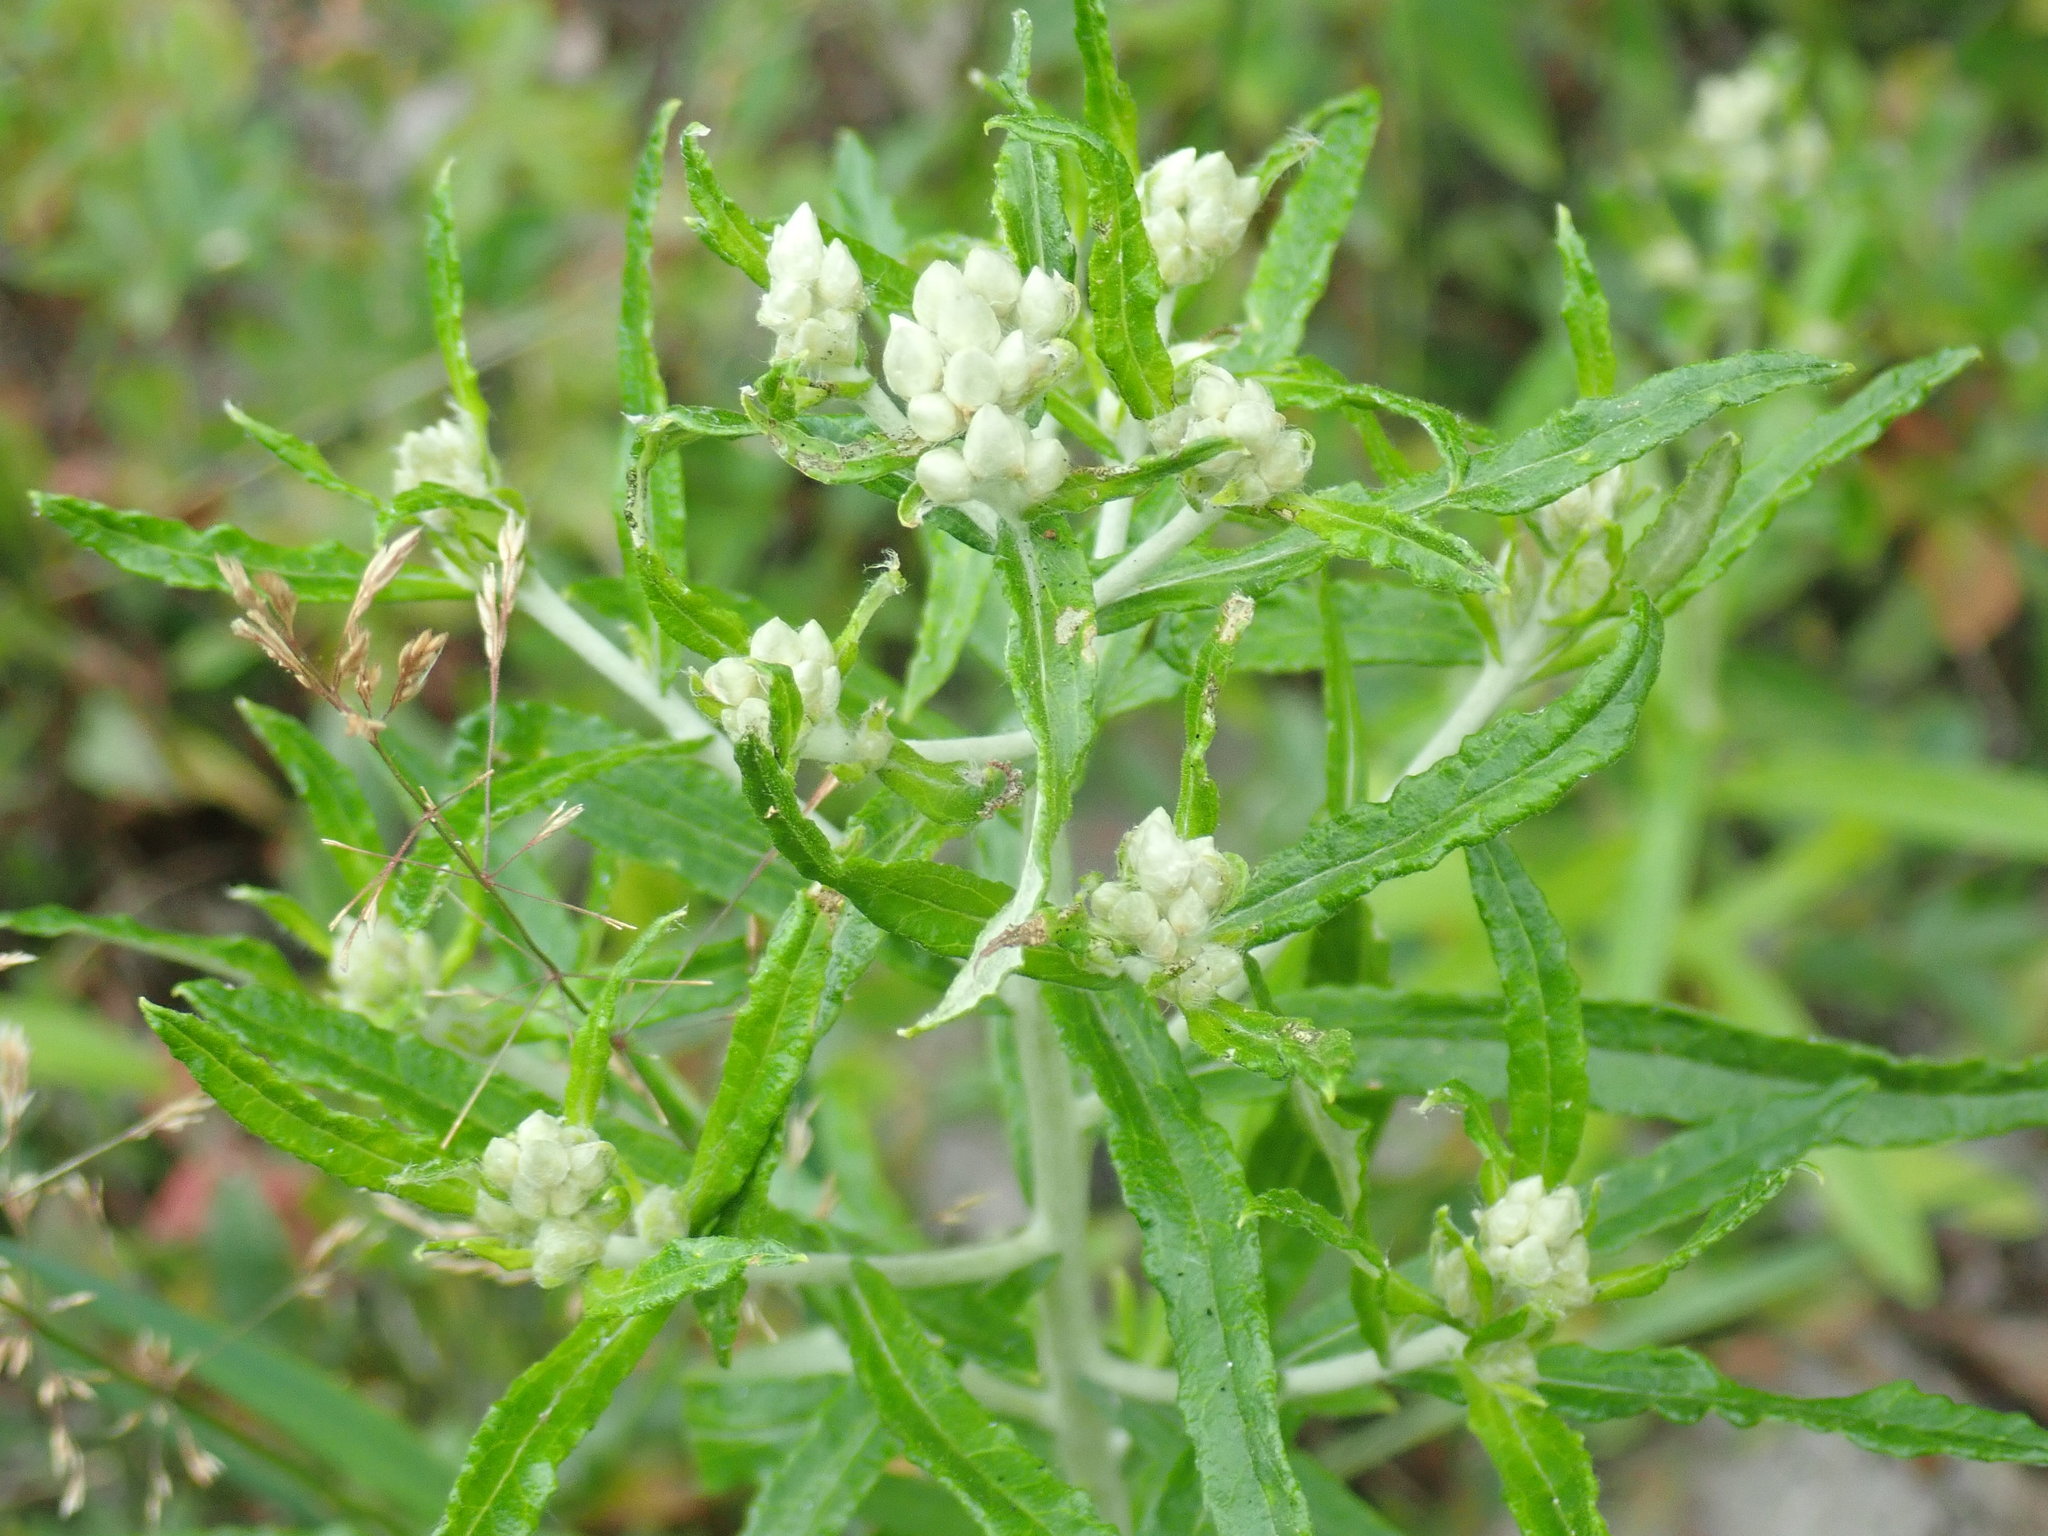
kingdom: Plantae
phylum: Tracheophyta
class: Magnoliopsida
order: Asterales
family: Asteraceae
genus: Pseudognaphalium
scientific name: Pseudognaphalium obtusifolium
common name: Eastern rabbit-tobacco
